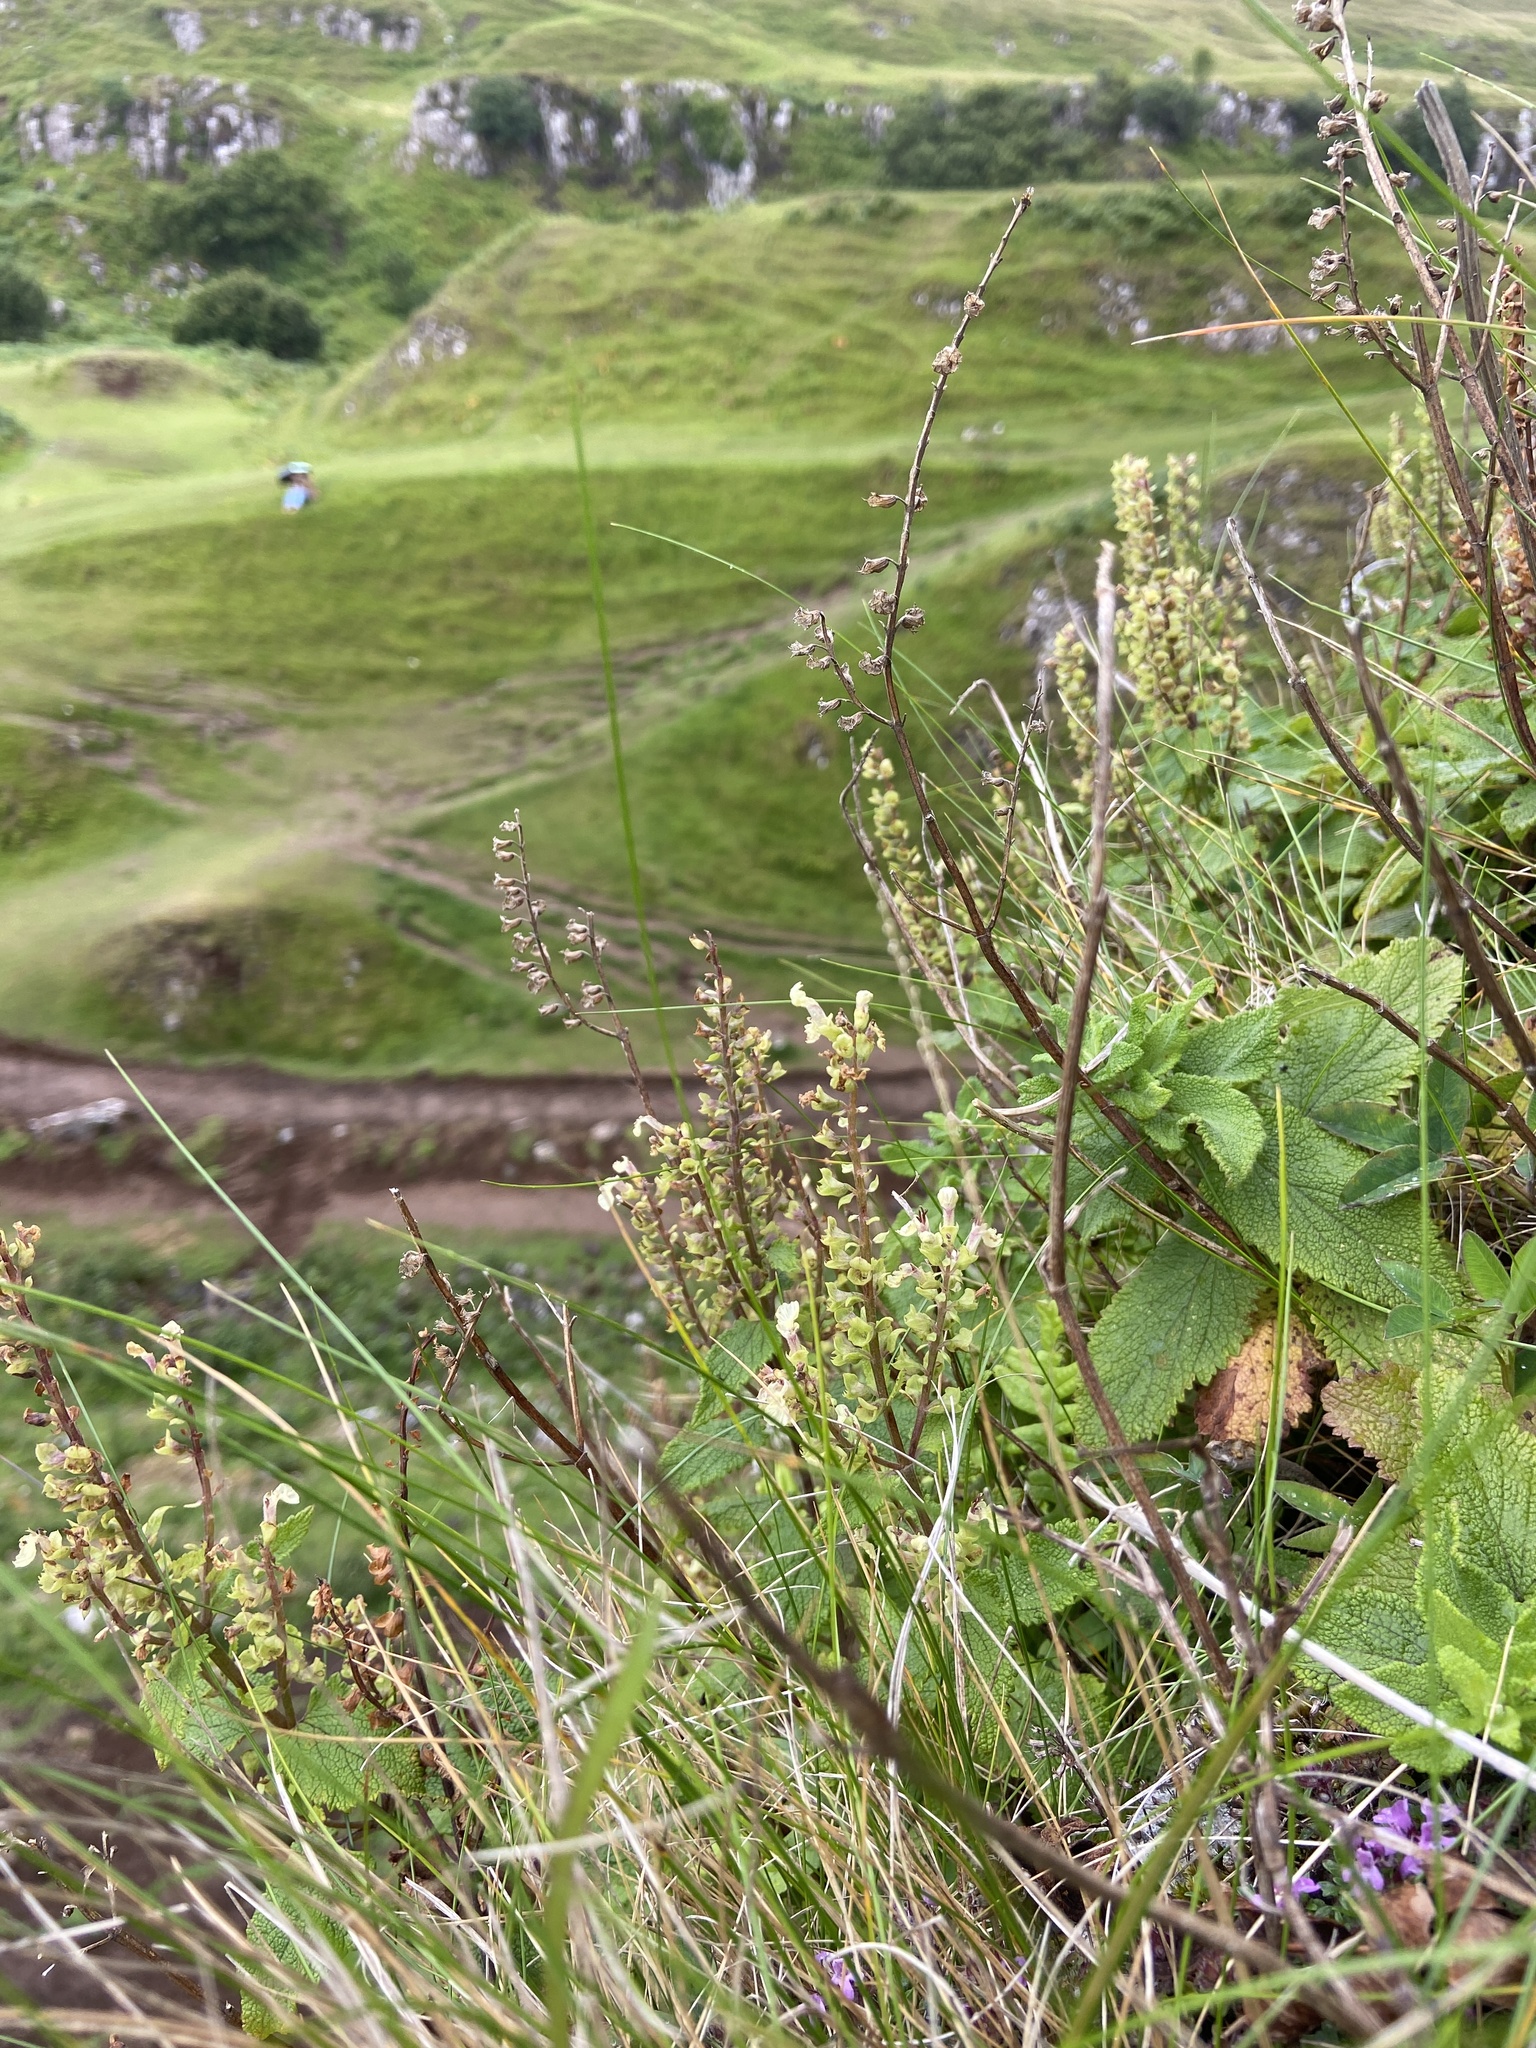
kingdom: Plantae
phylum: Tracheophyta
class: Magnoliopsida
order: Lamiales
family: Lamiaceae
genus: Teucrium
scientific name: Teucrium scorodonia
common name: Woodland germander
